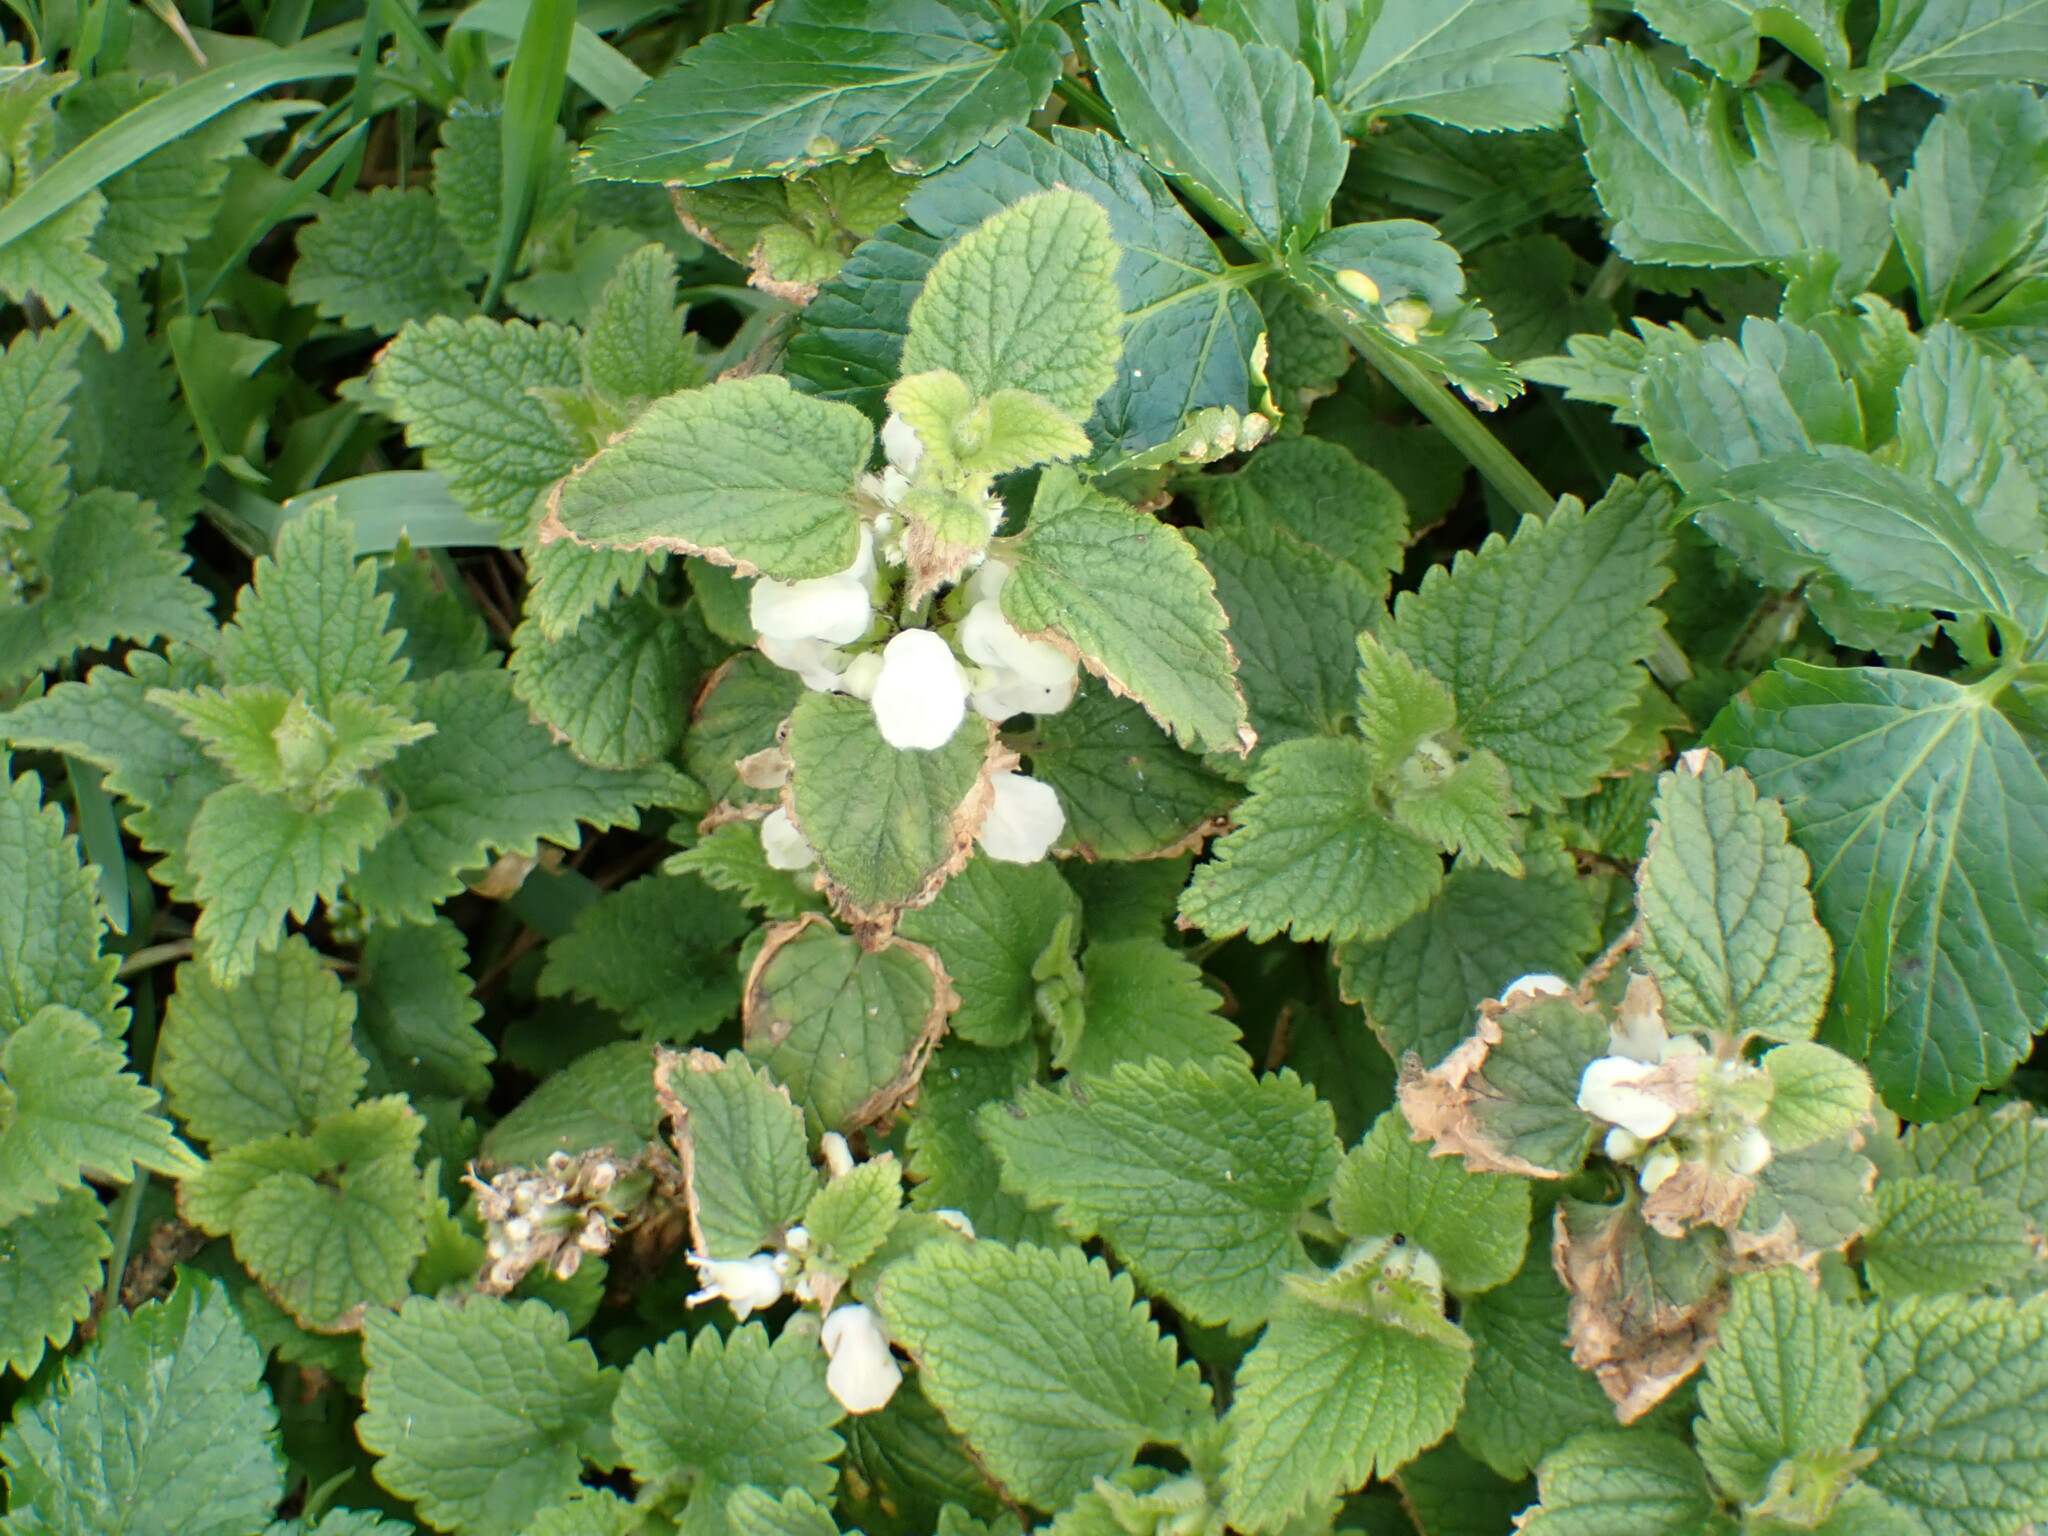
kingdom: Plantae
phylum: Tracheophyta
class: Magnoliopsida
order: Lamiales
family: Lamiaceae
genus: Lamium
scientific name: Lamium album
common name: White dead-nettle
